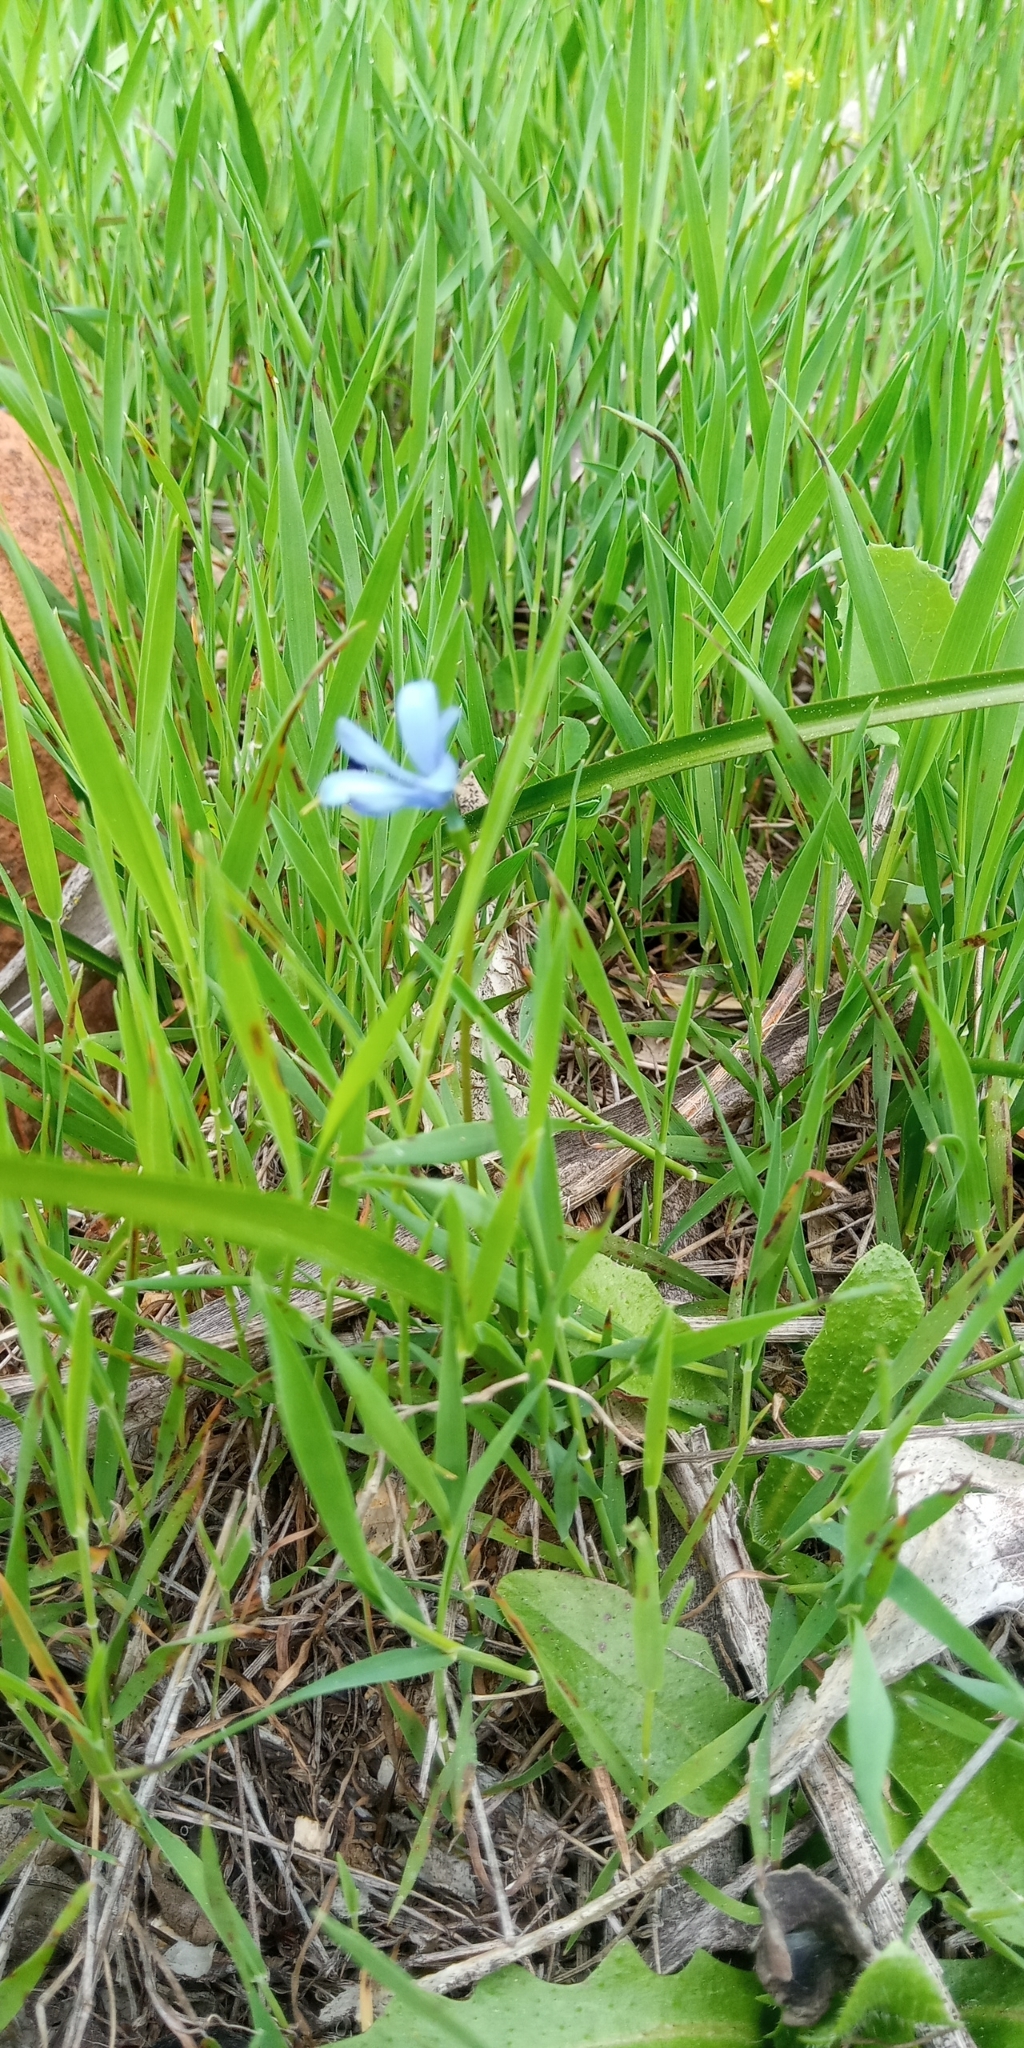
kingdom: Plantae
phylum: Tracheophyta
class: Liliopsida
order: Asparagales
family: Tecophilaeaceae
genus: Tecophilaea
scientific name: Tecophilaea violiflora
